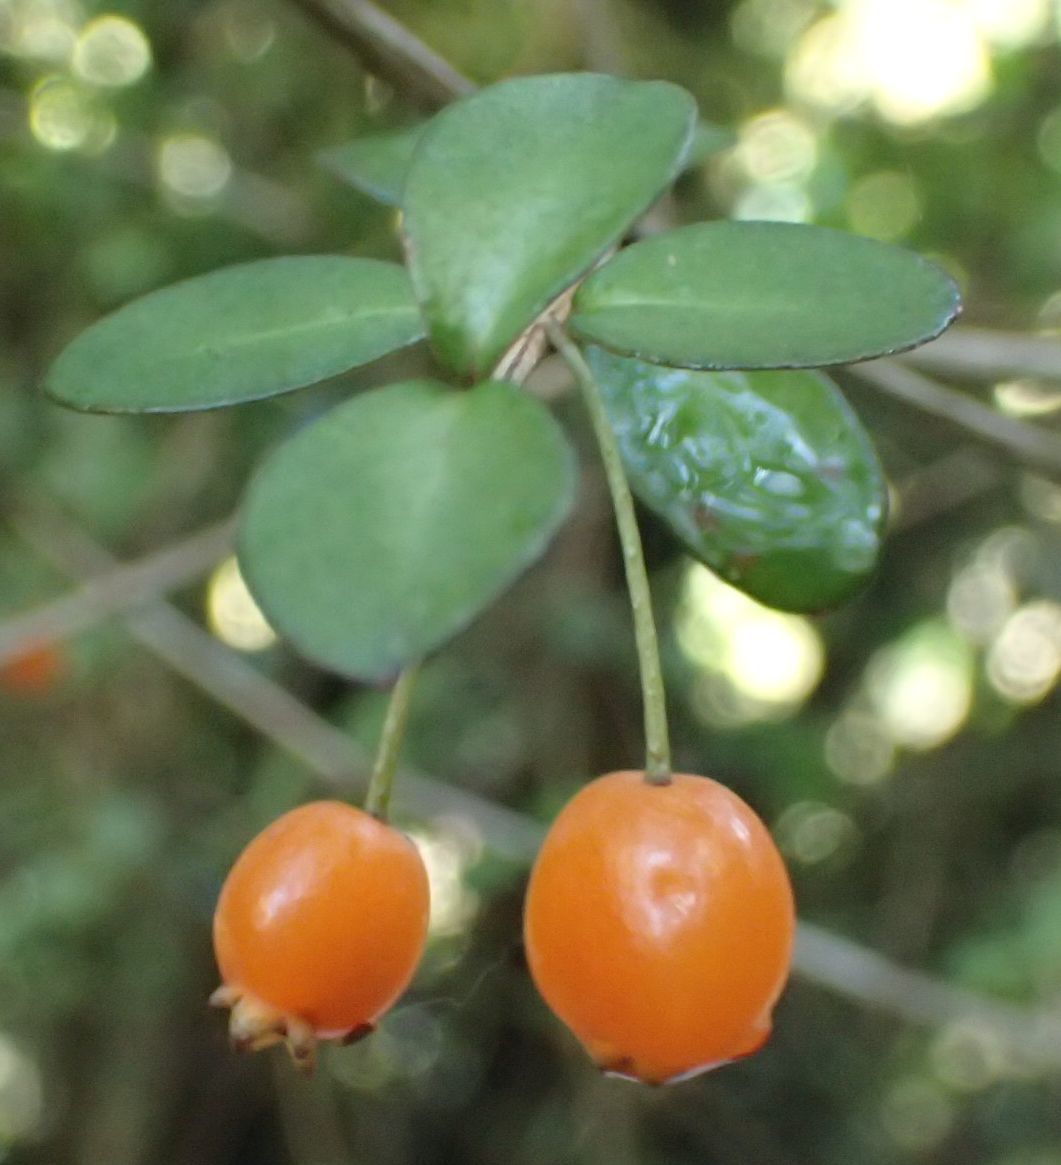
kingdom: Plantae
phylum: Tracheophyta
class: Magnoliopsida
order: Myrtales
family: Myrtaceae
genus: Neomyrtus
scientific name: Neomyrtus pedunculata
